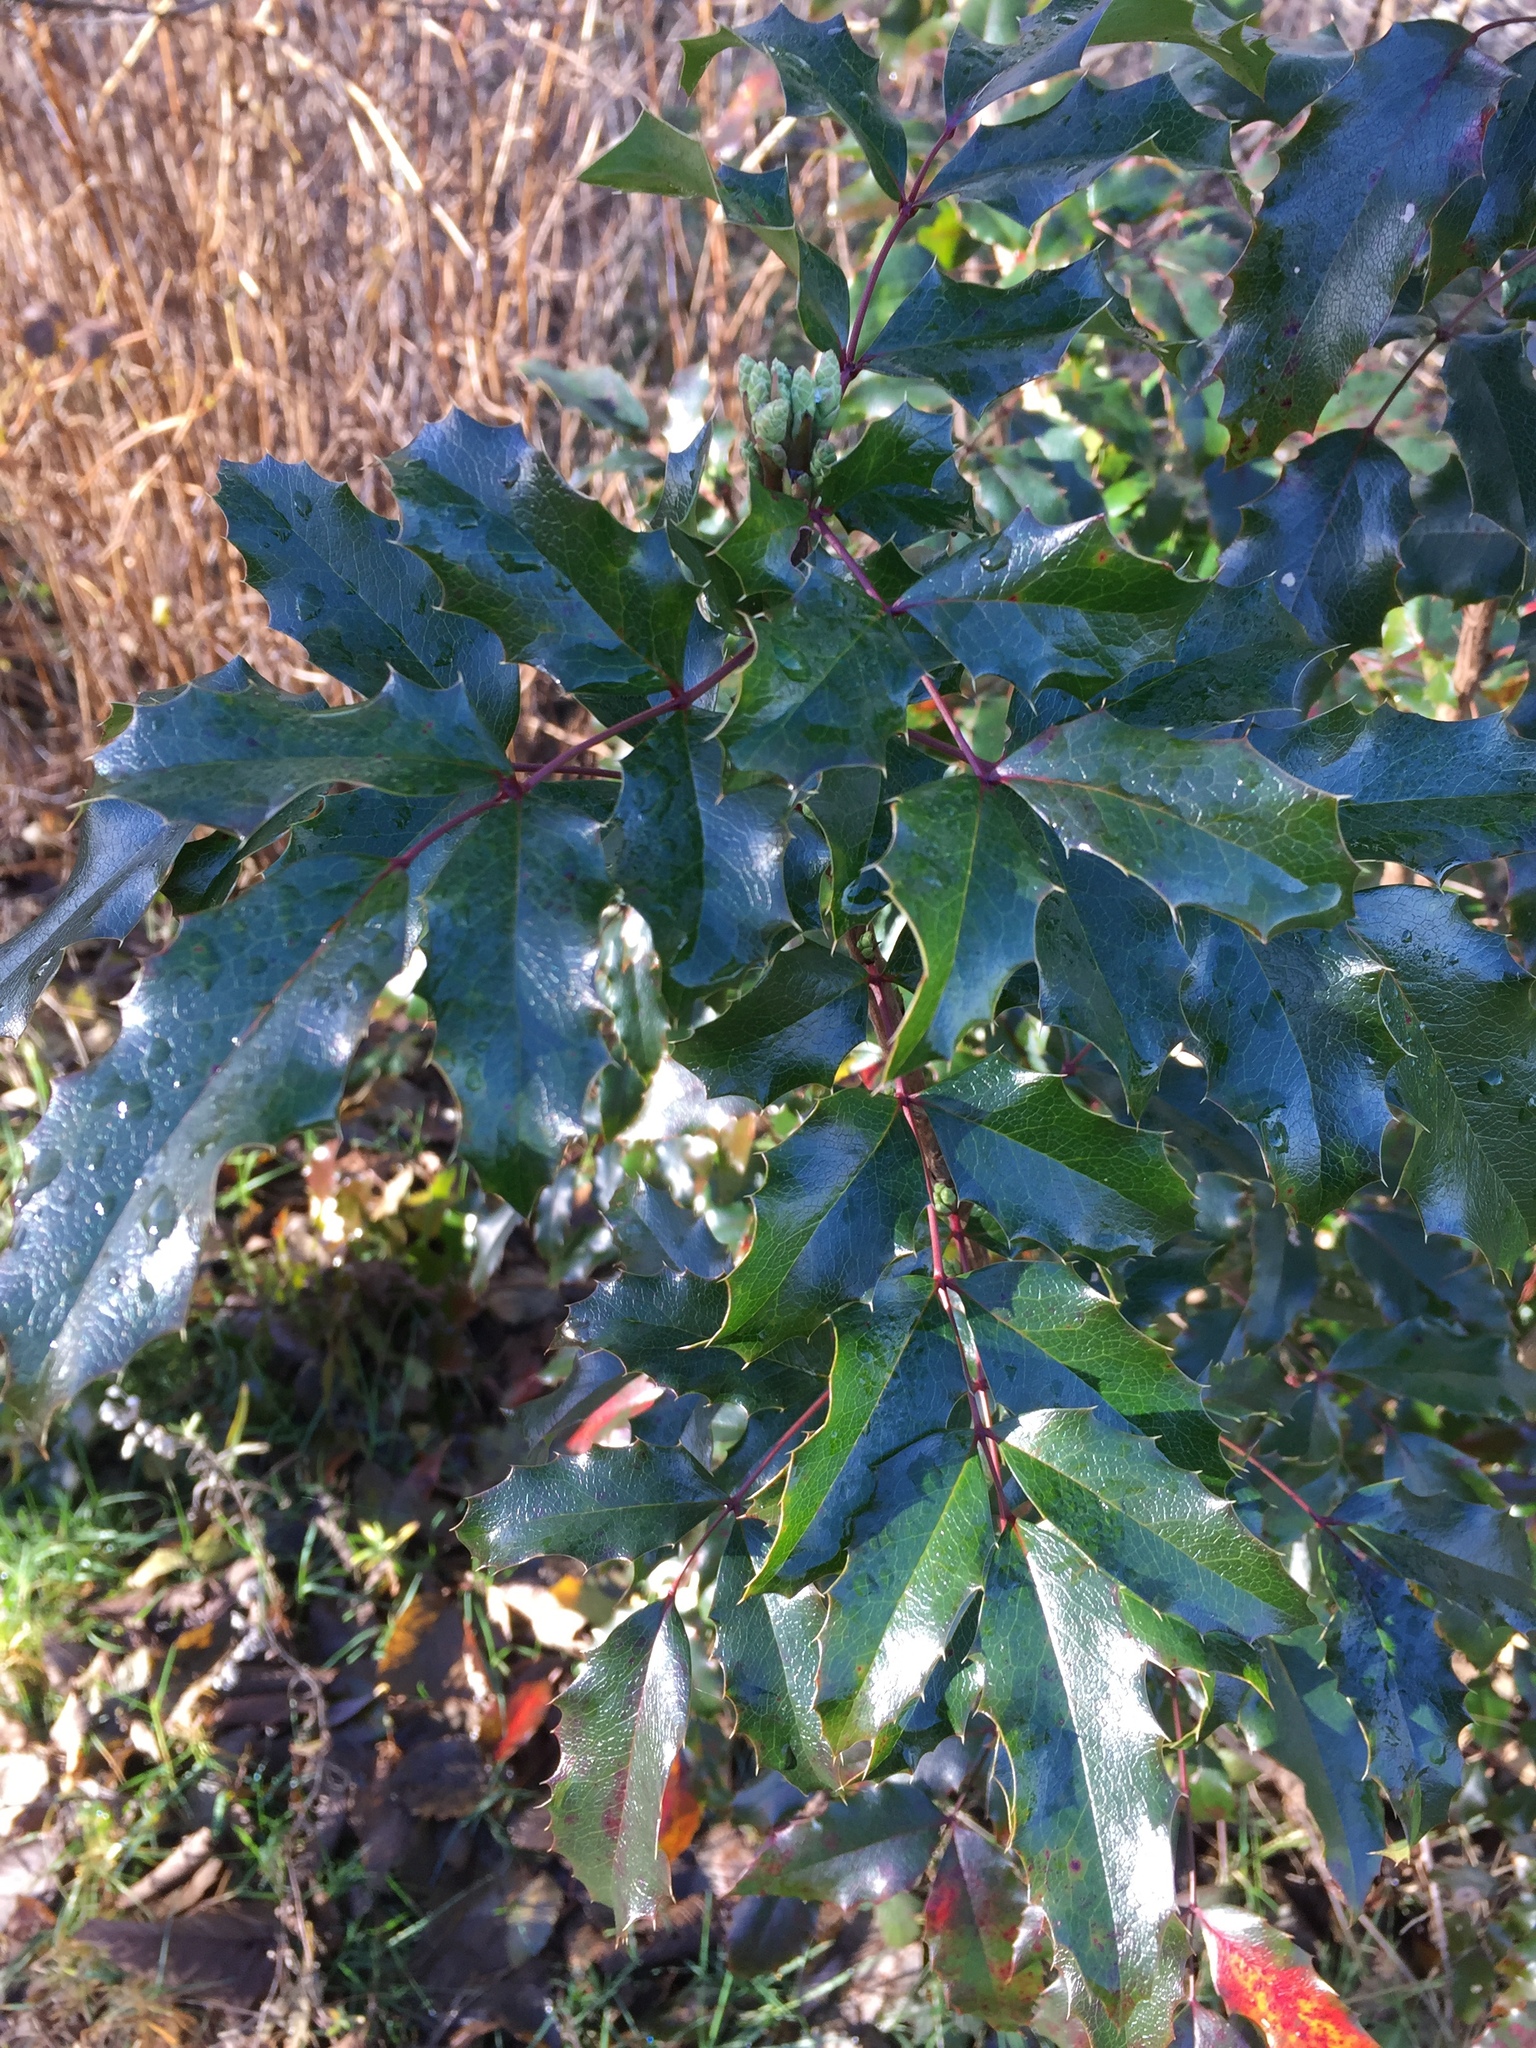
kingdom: Plantae
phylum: Tracheophyta
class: Magnoliopsida
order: Ranunculales
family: Berberidaceae
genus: Mahonia
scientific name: Mahonia aquifolium
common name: Oregon-grape
